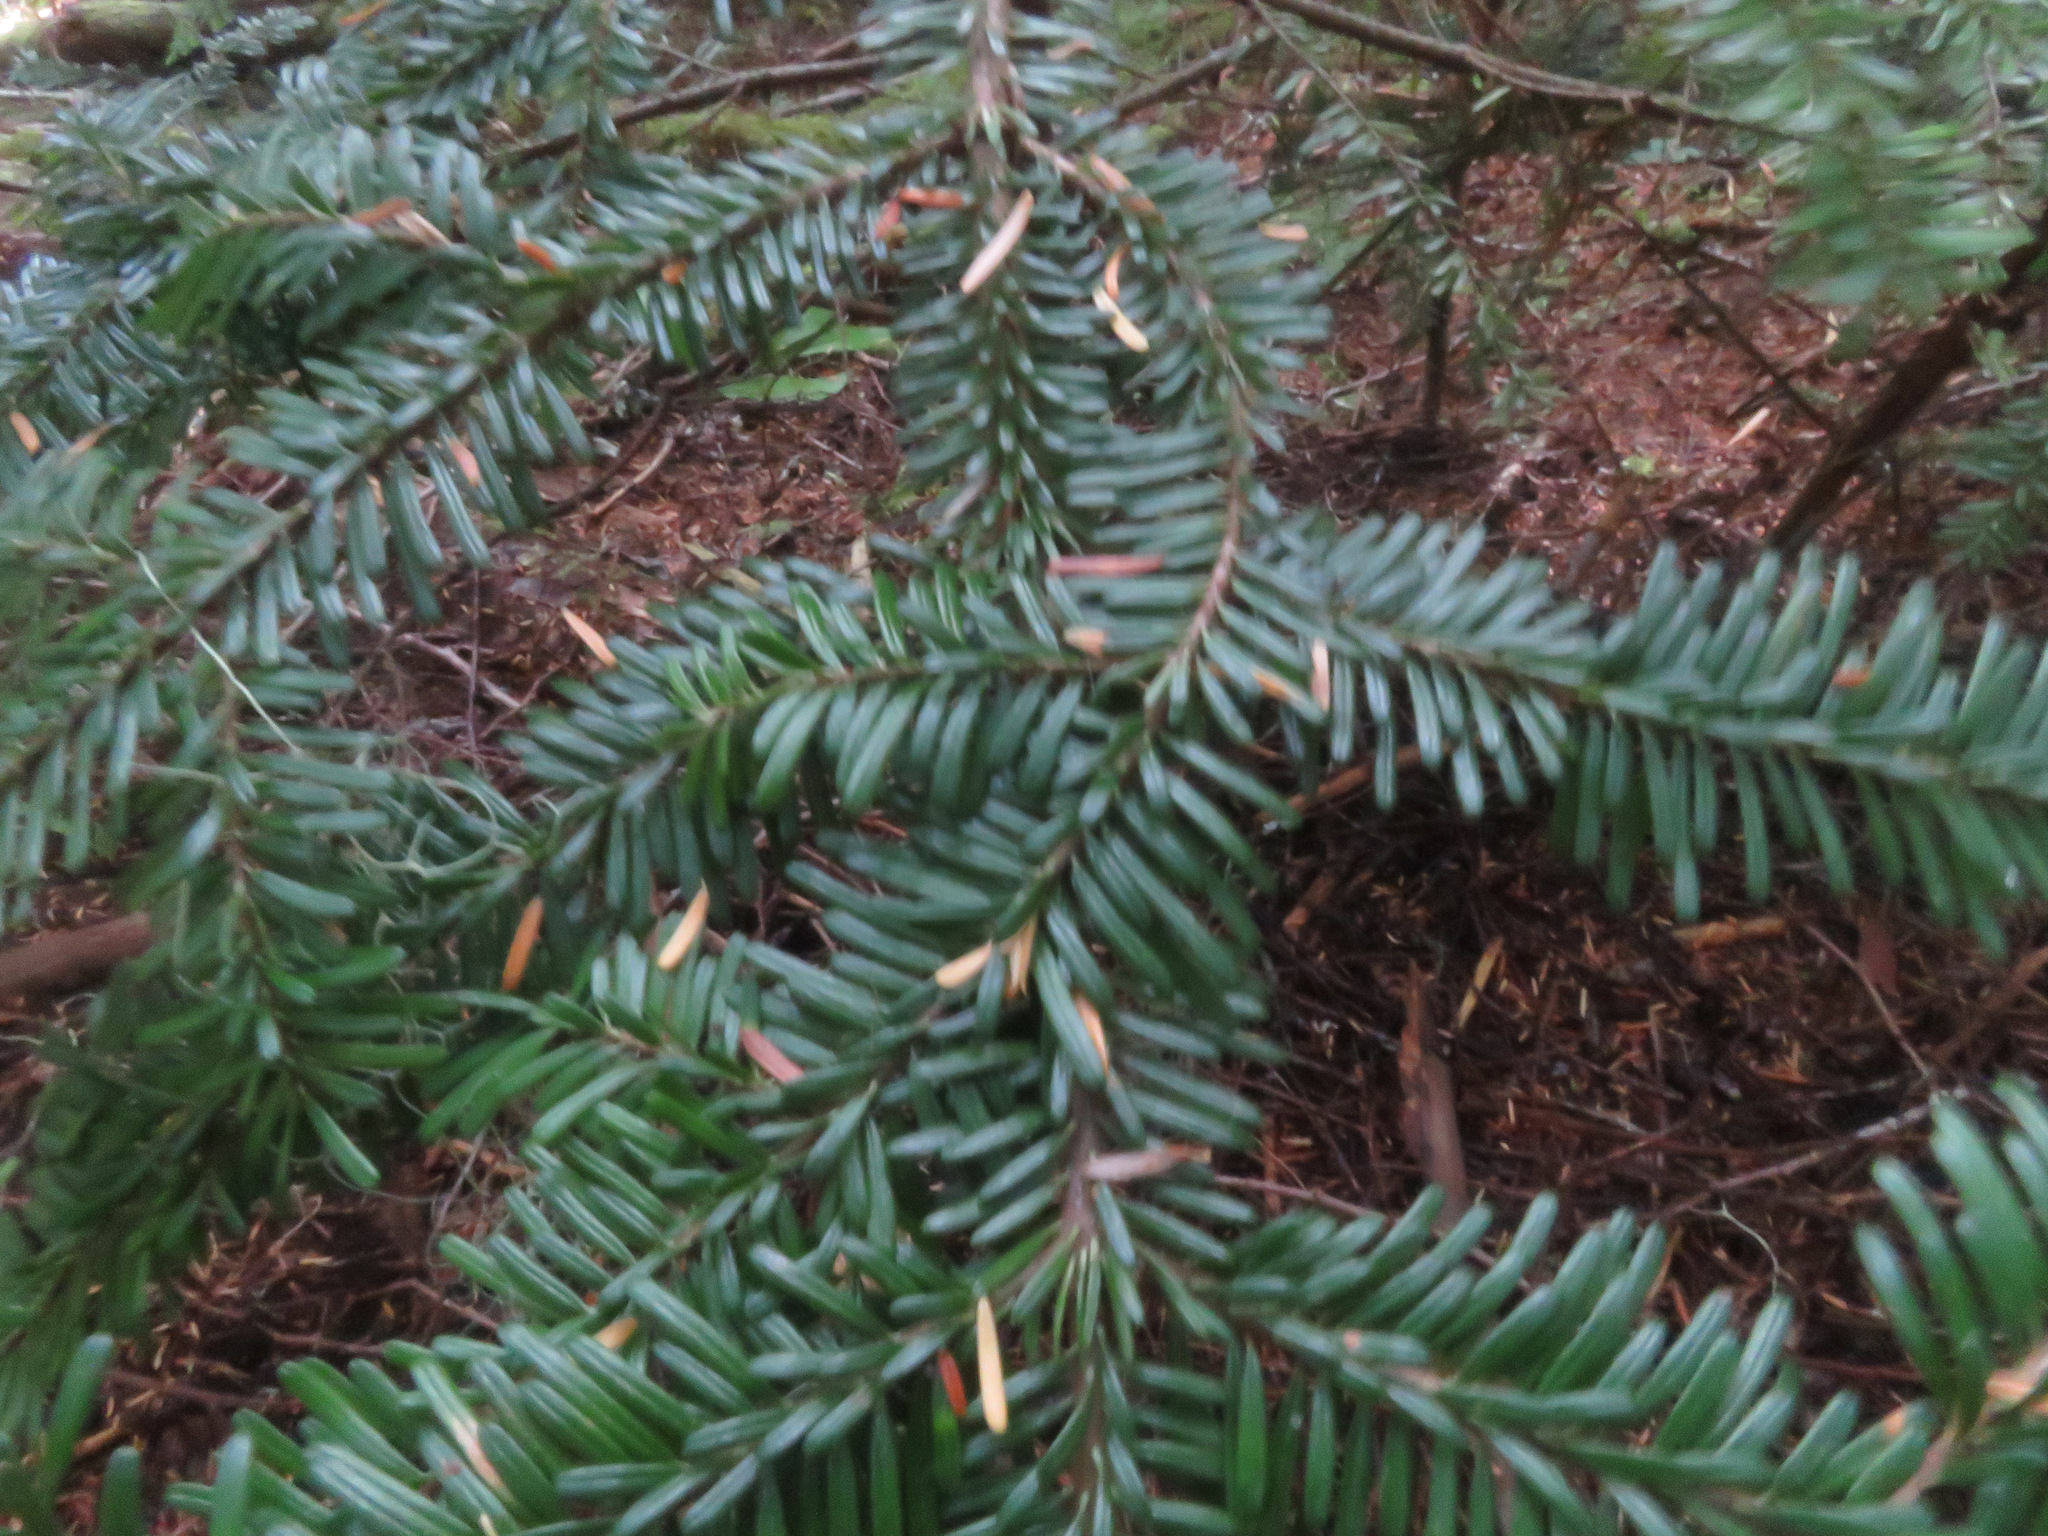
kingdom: Plantae
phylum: Tracheophyta
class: Pinopsida
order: Pinales
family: Pinaceae
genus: Abies
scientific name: Abies amabilis
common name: Pacific silver fir
